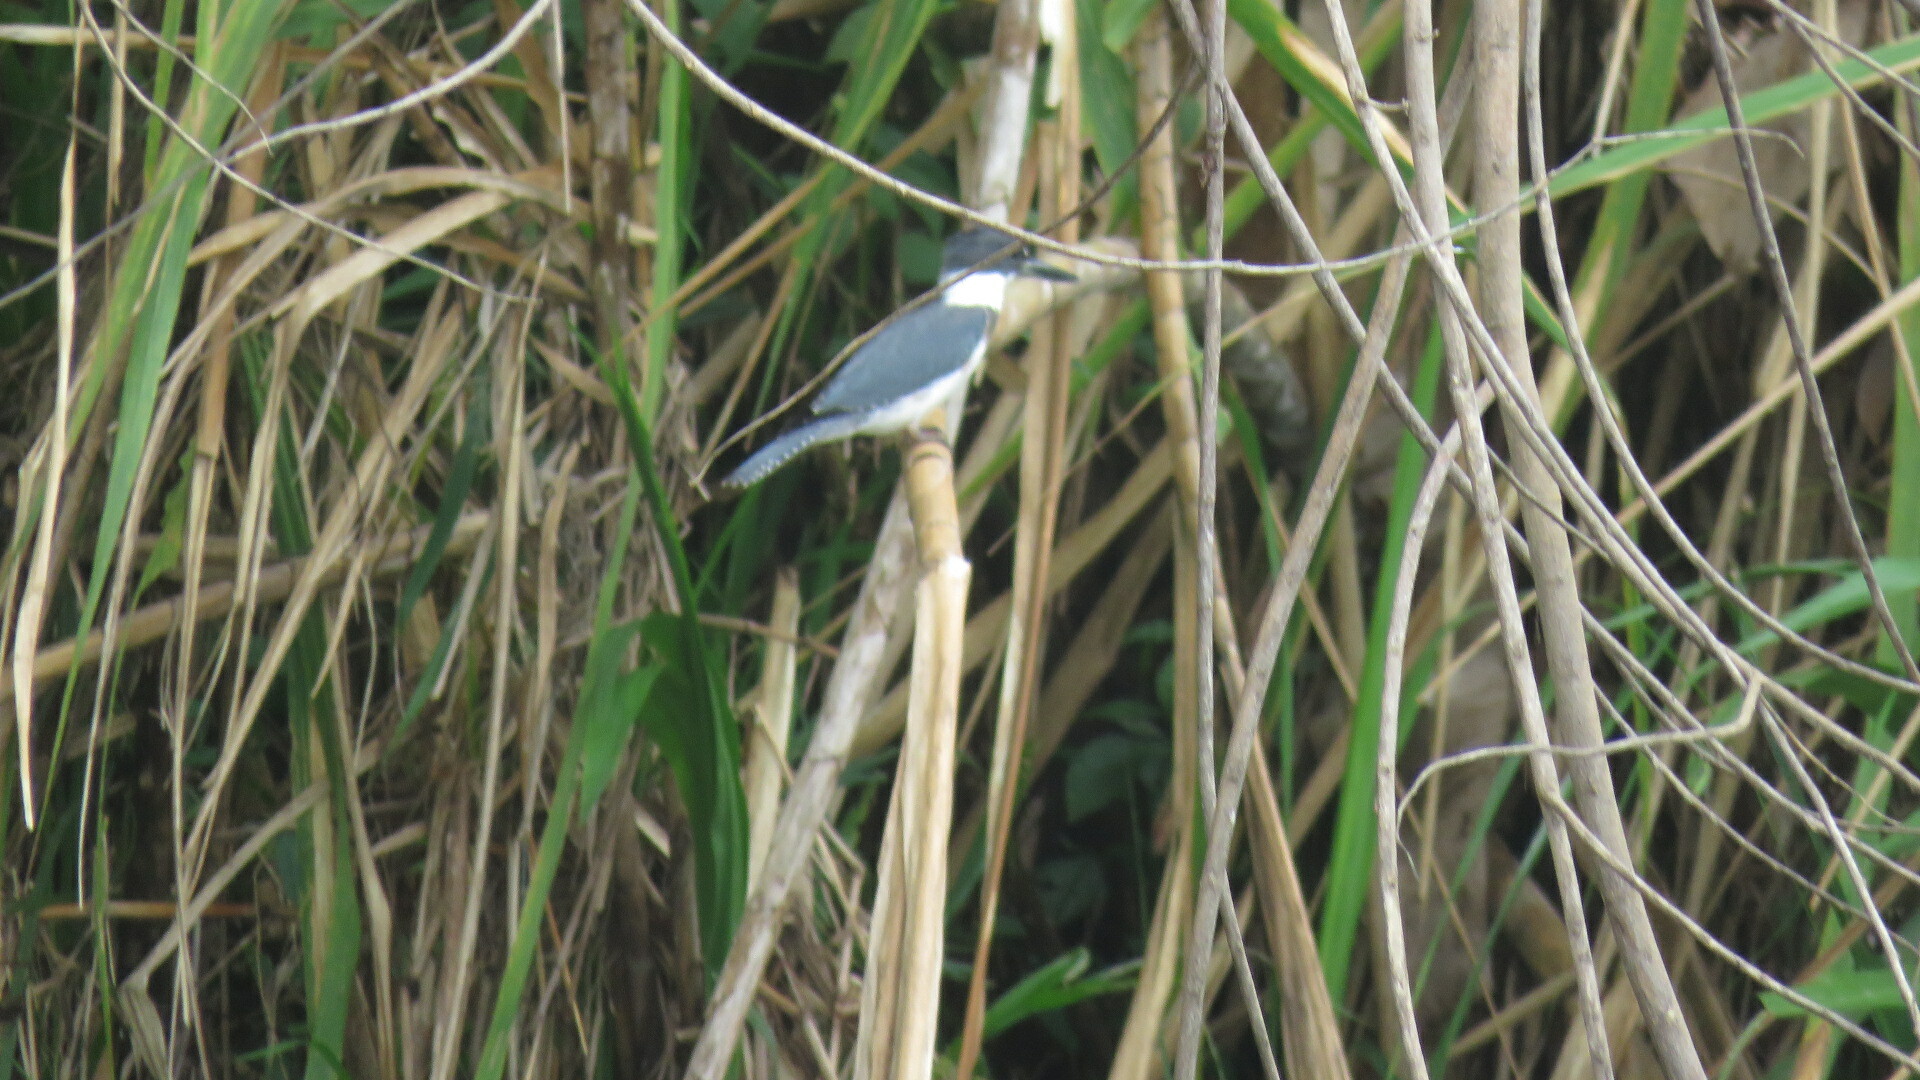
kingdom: Animalia
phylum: Chordata
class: Aves
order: Coraciiformes
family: Alcedinidae
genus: Megaceryle
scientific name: Megaceryle alcyon
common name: Belted kingfisher
